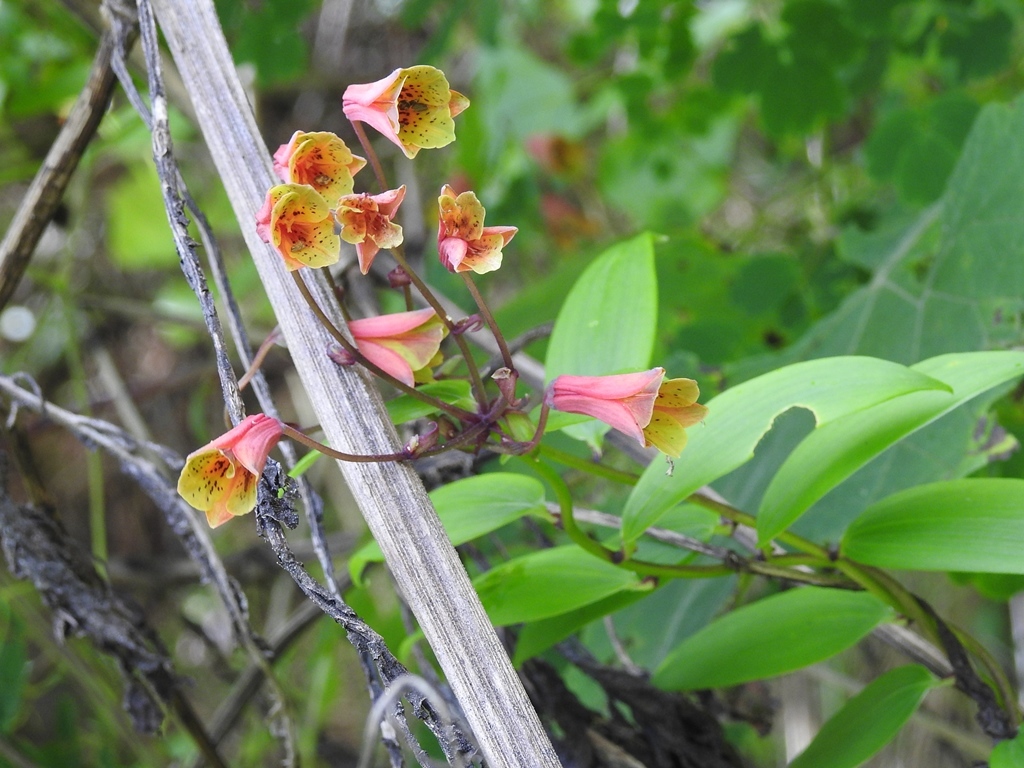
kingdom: Plantae
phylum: Tracheophyta
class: Liliopsida
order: Liliales
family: Alstroemeriaceae
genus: Bomarea
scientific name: Bomarea edulis
